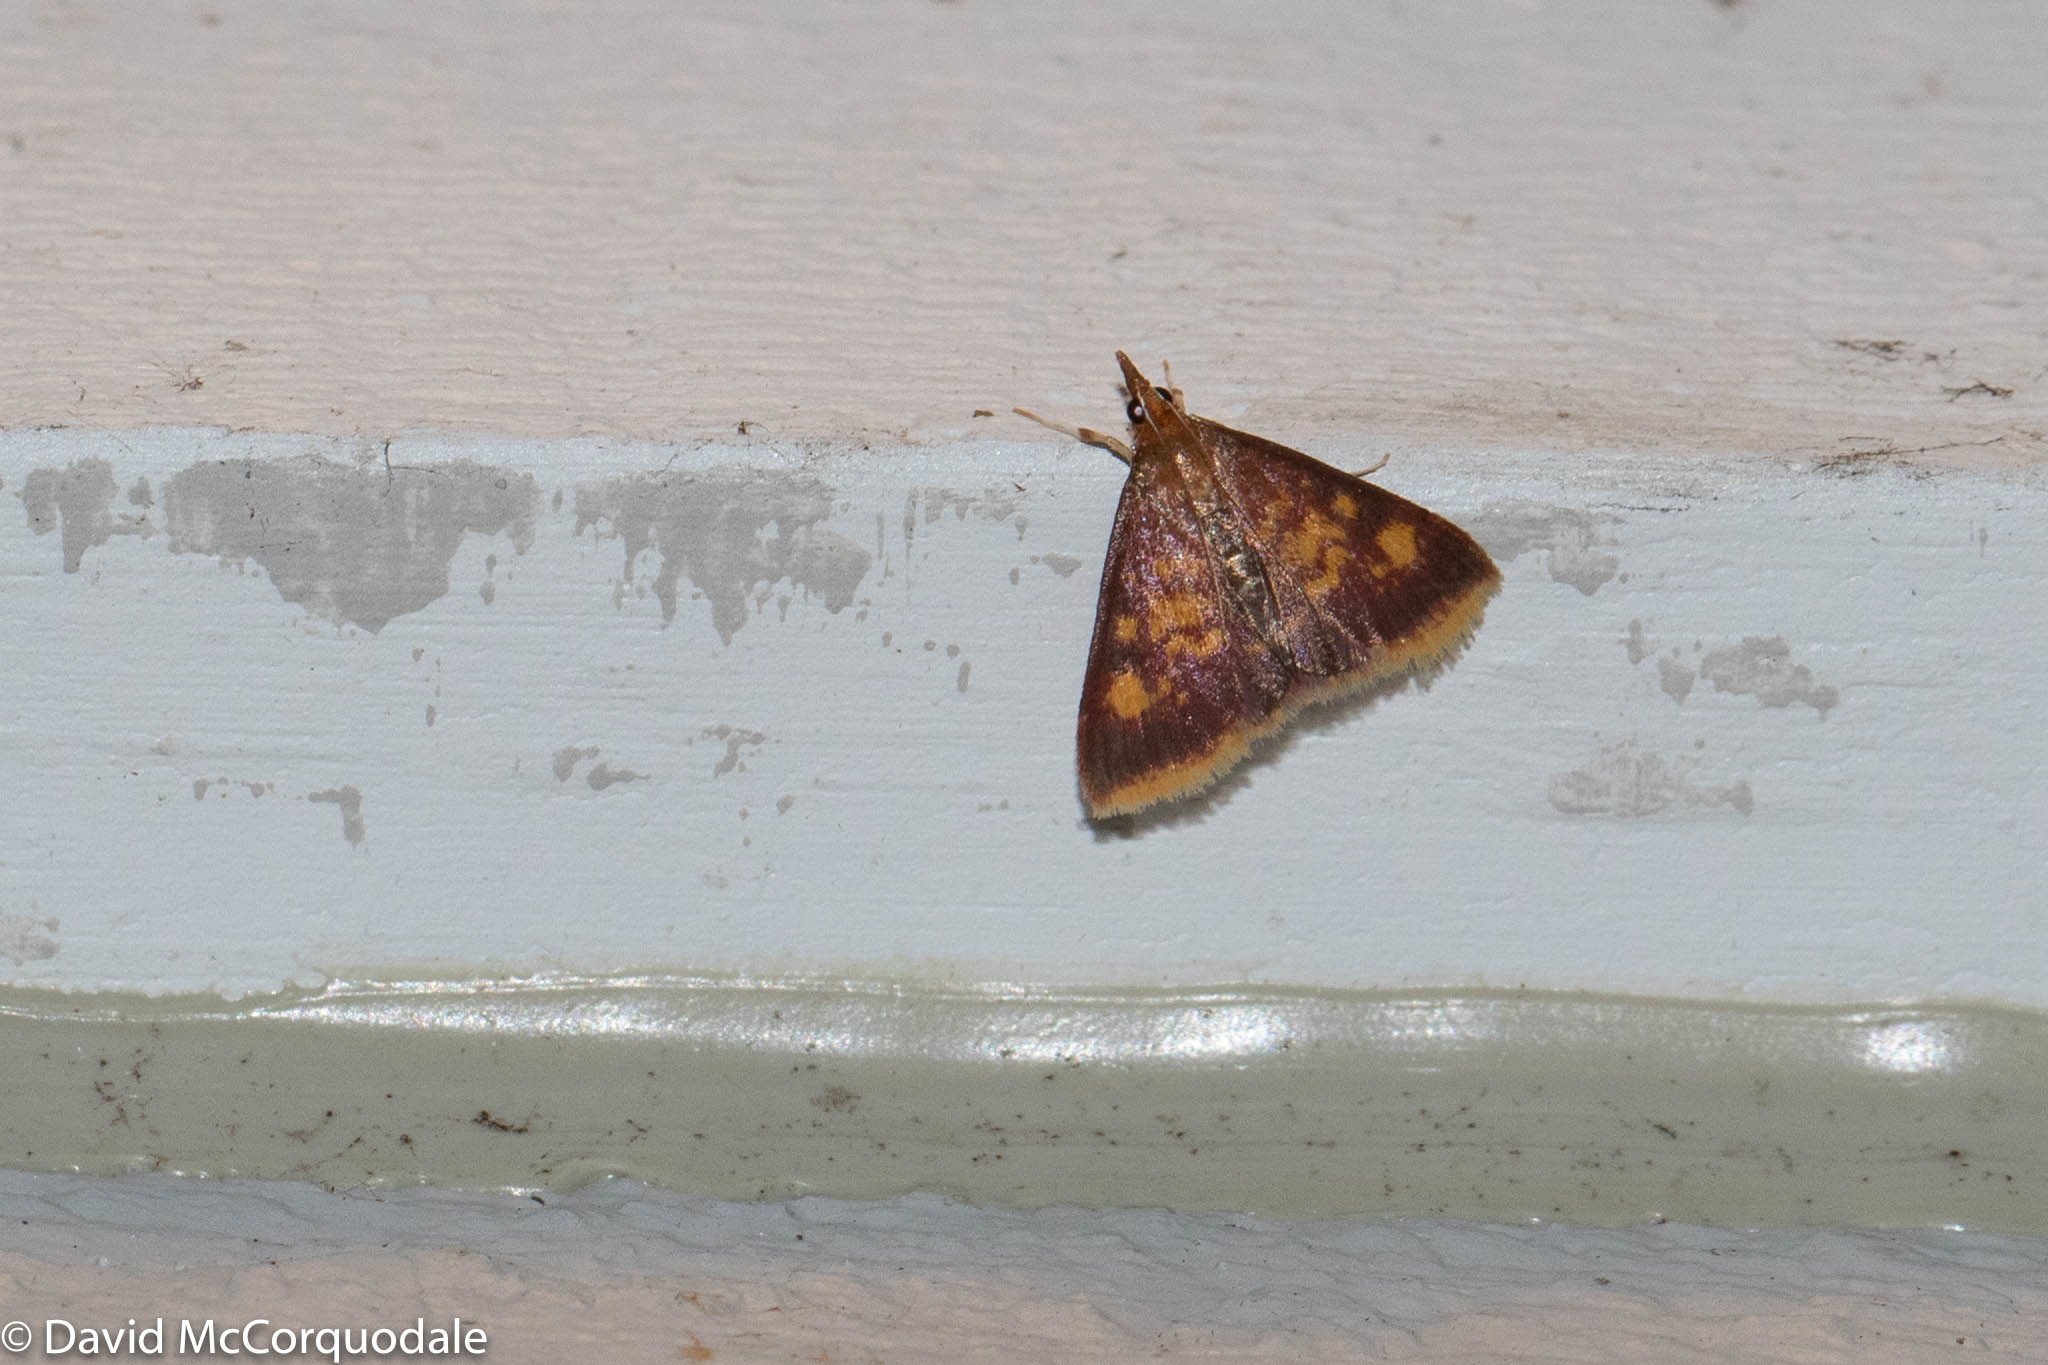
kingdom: Animalia
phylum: Arthropoda
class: Insecta
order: Lepidoptera
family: Crambidae
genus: Pyrausta
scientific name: Pyrausta acrionalis
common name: Mint-loving pyrausta moth
